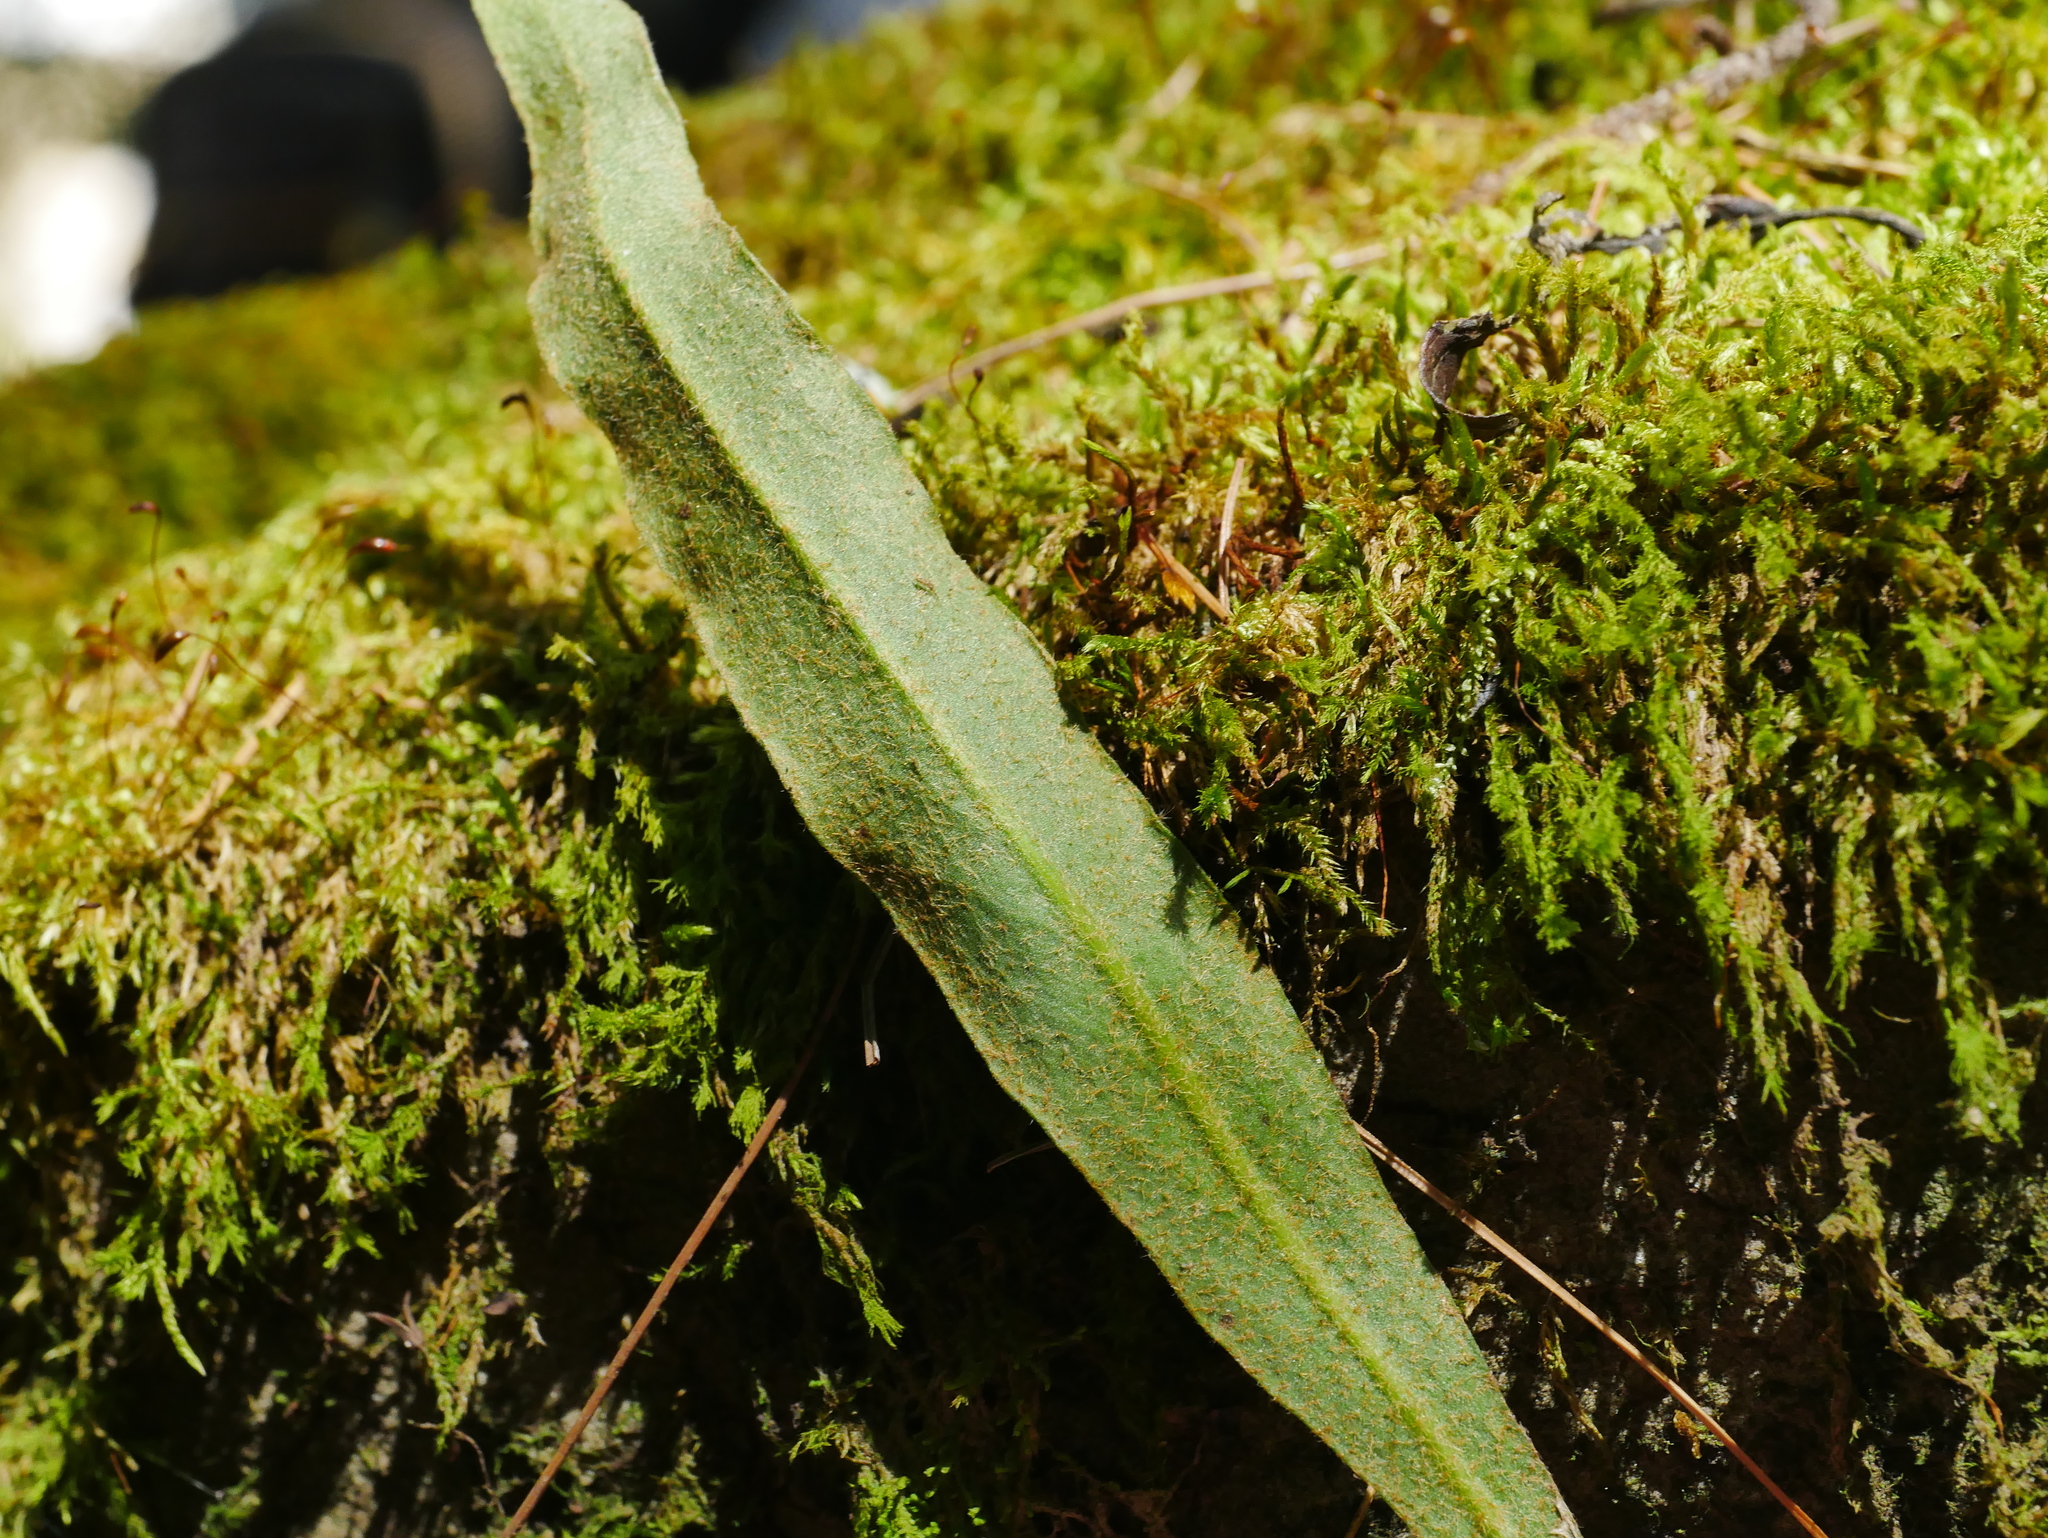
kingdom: Plantae
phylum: Tracheophyta
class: Polypodiopsida
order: Polypodiales
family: Polypodiaceae
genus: Pyrrosia
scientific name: Pyrrosia matsudae
